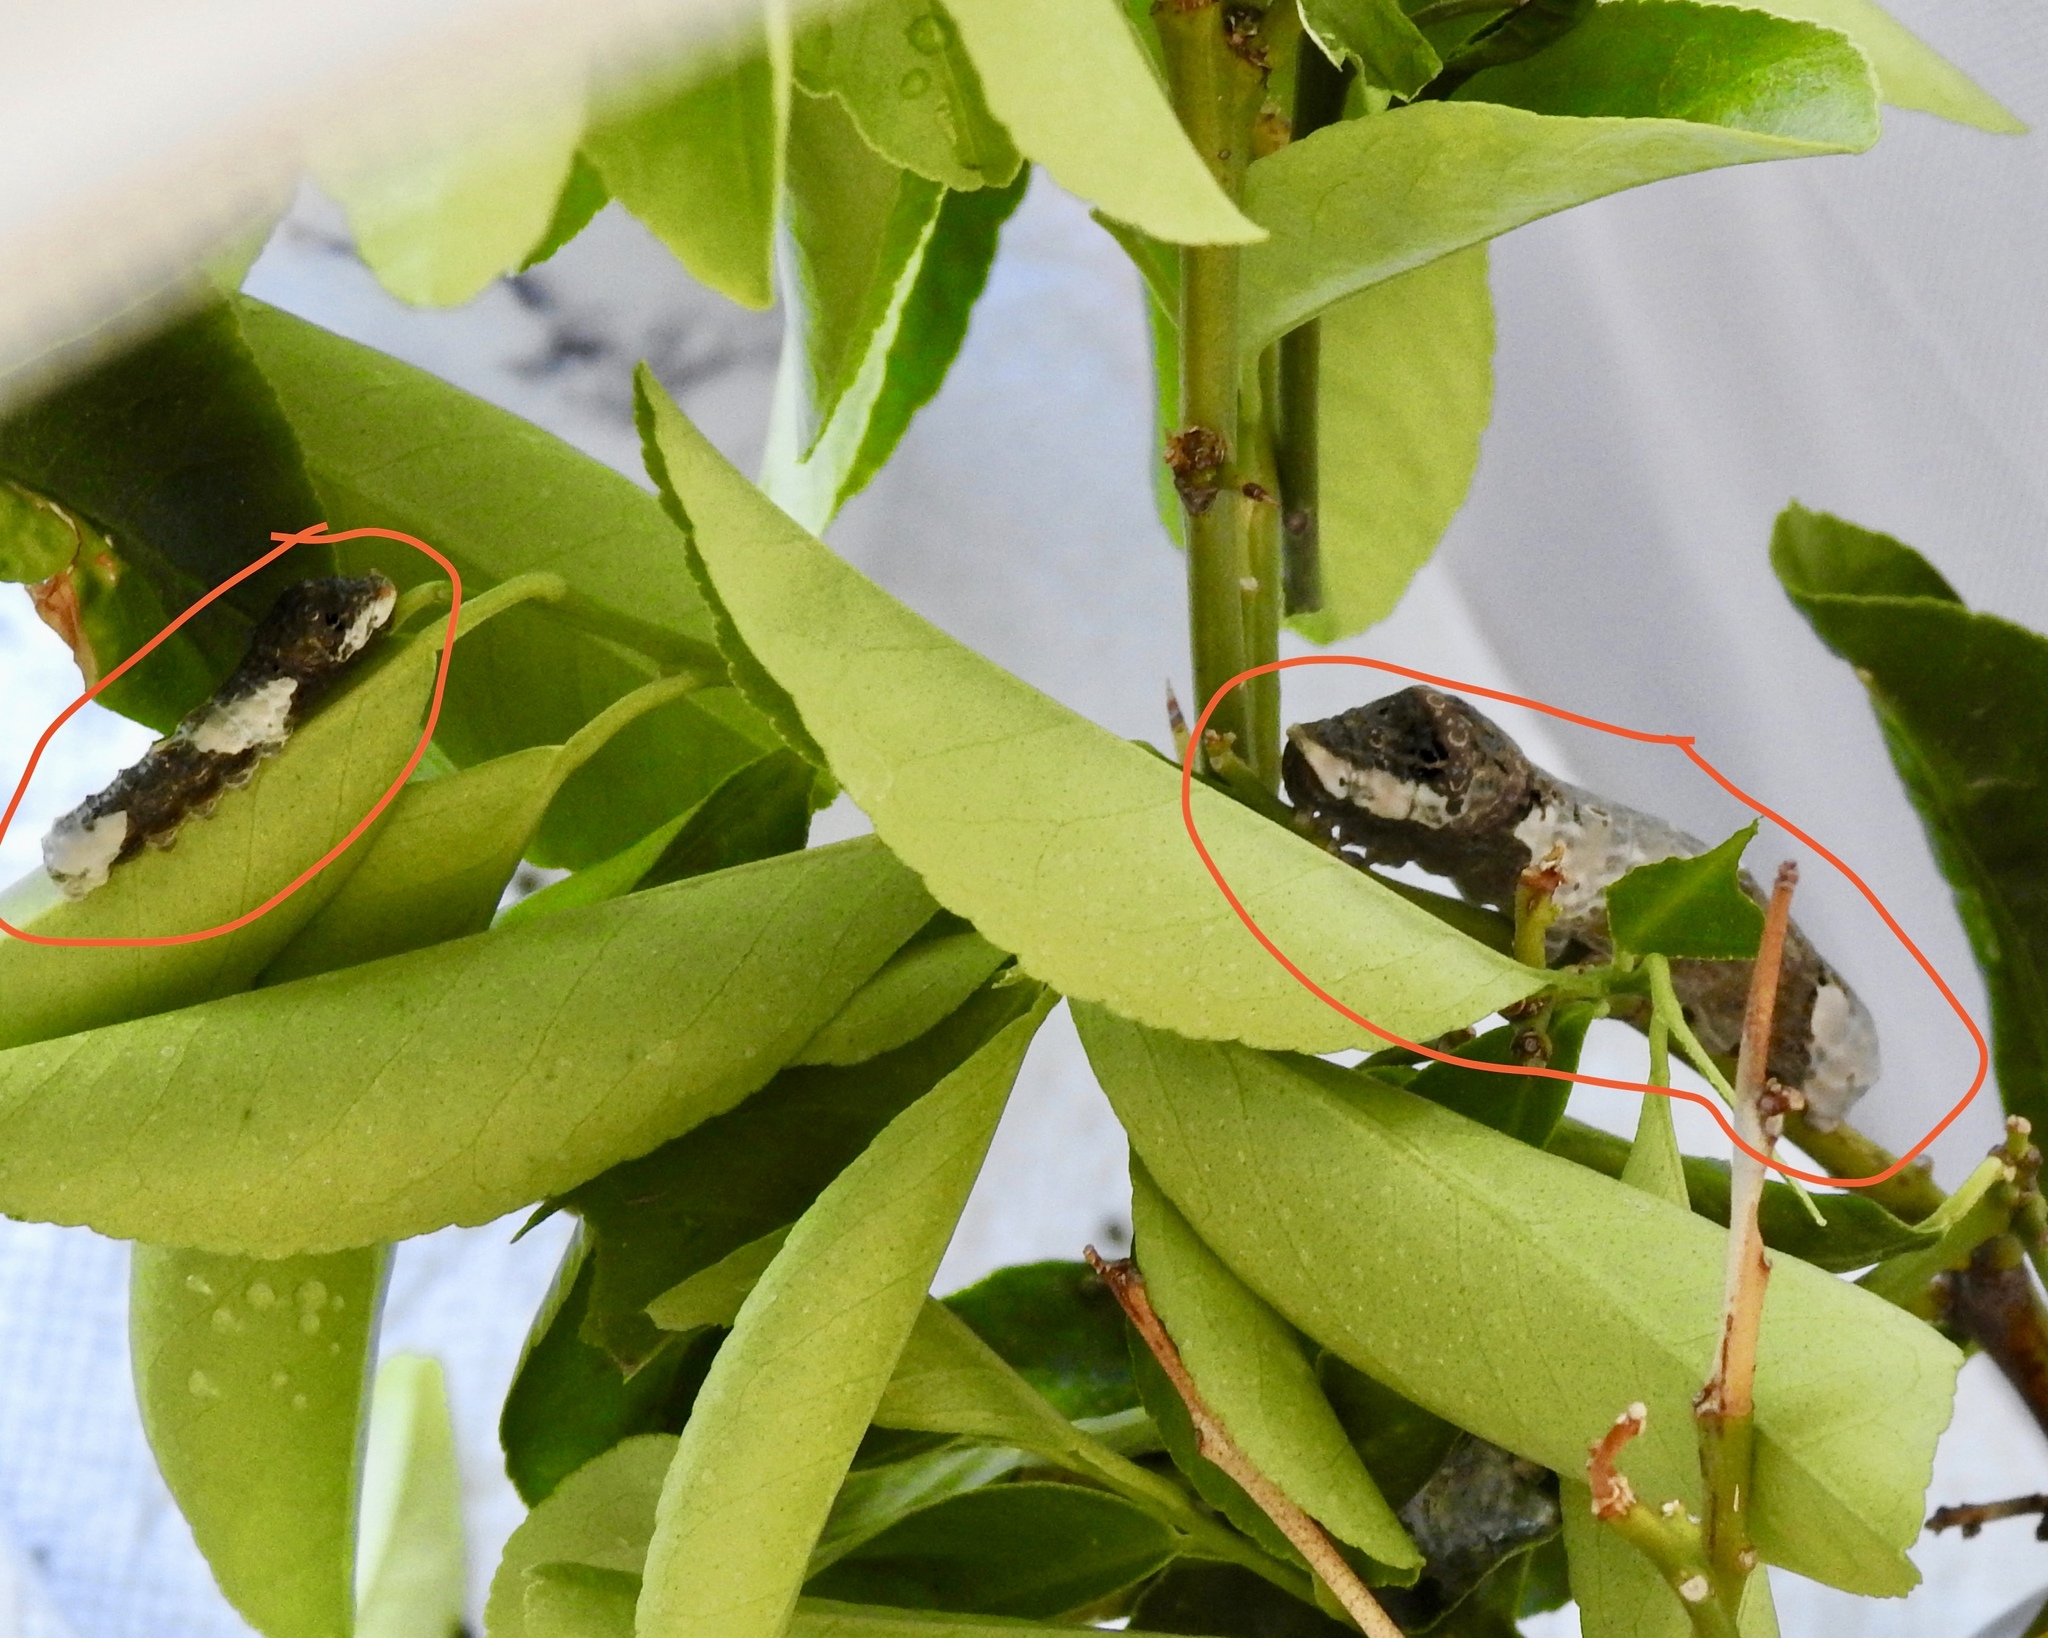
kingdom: Animalia
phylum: Arthropoda
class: Insecta
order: Lepidoptera
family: Papilionidae
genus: Papilio
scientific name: Papilio rumiko
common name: Western giant swallowtail
